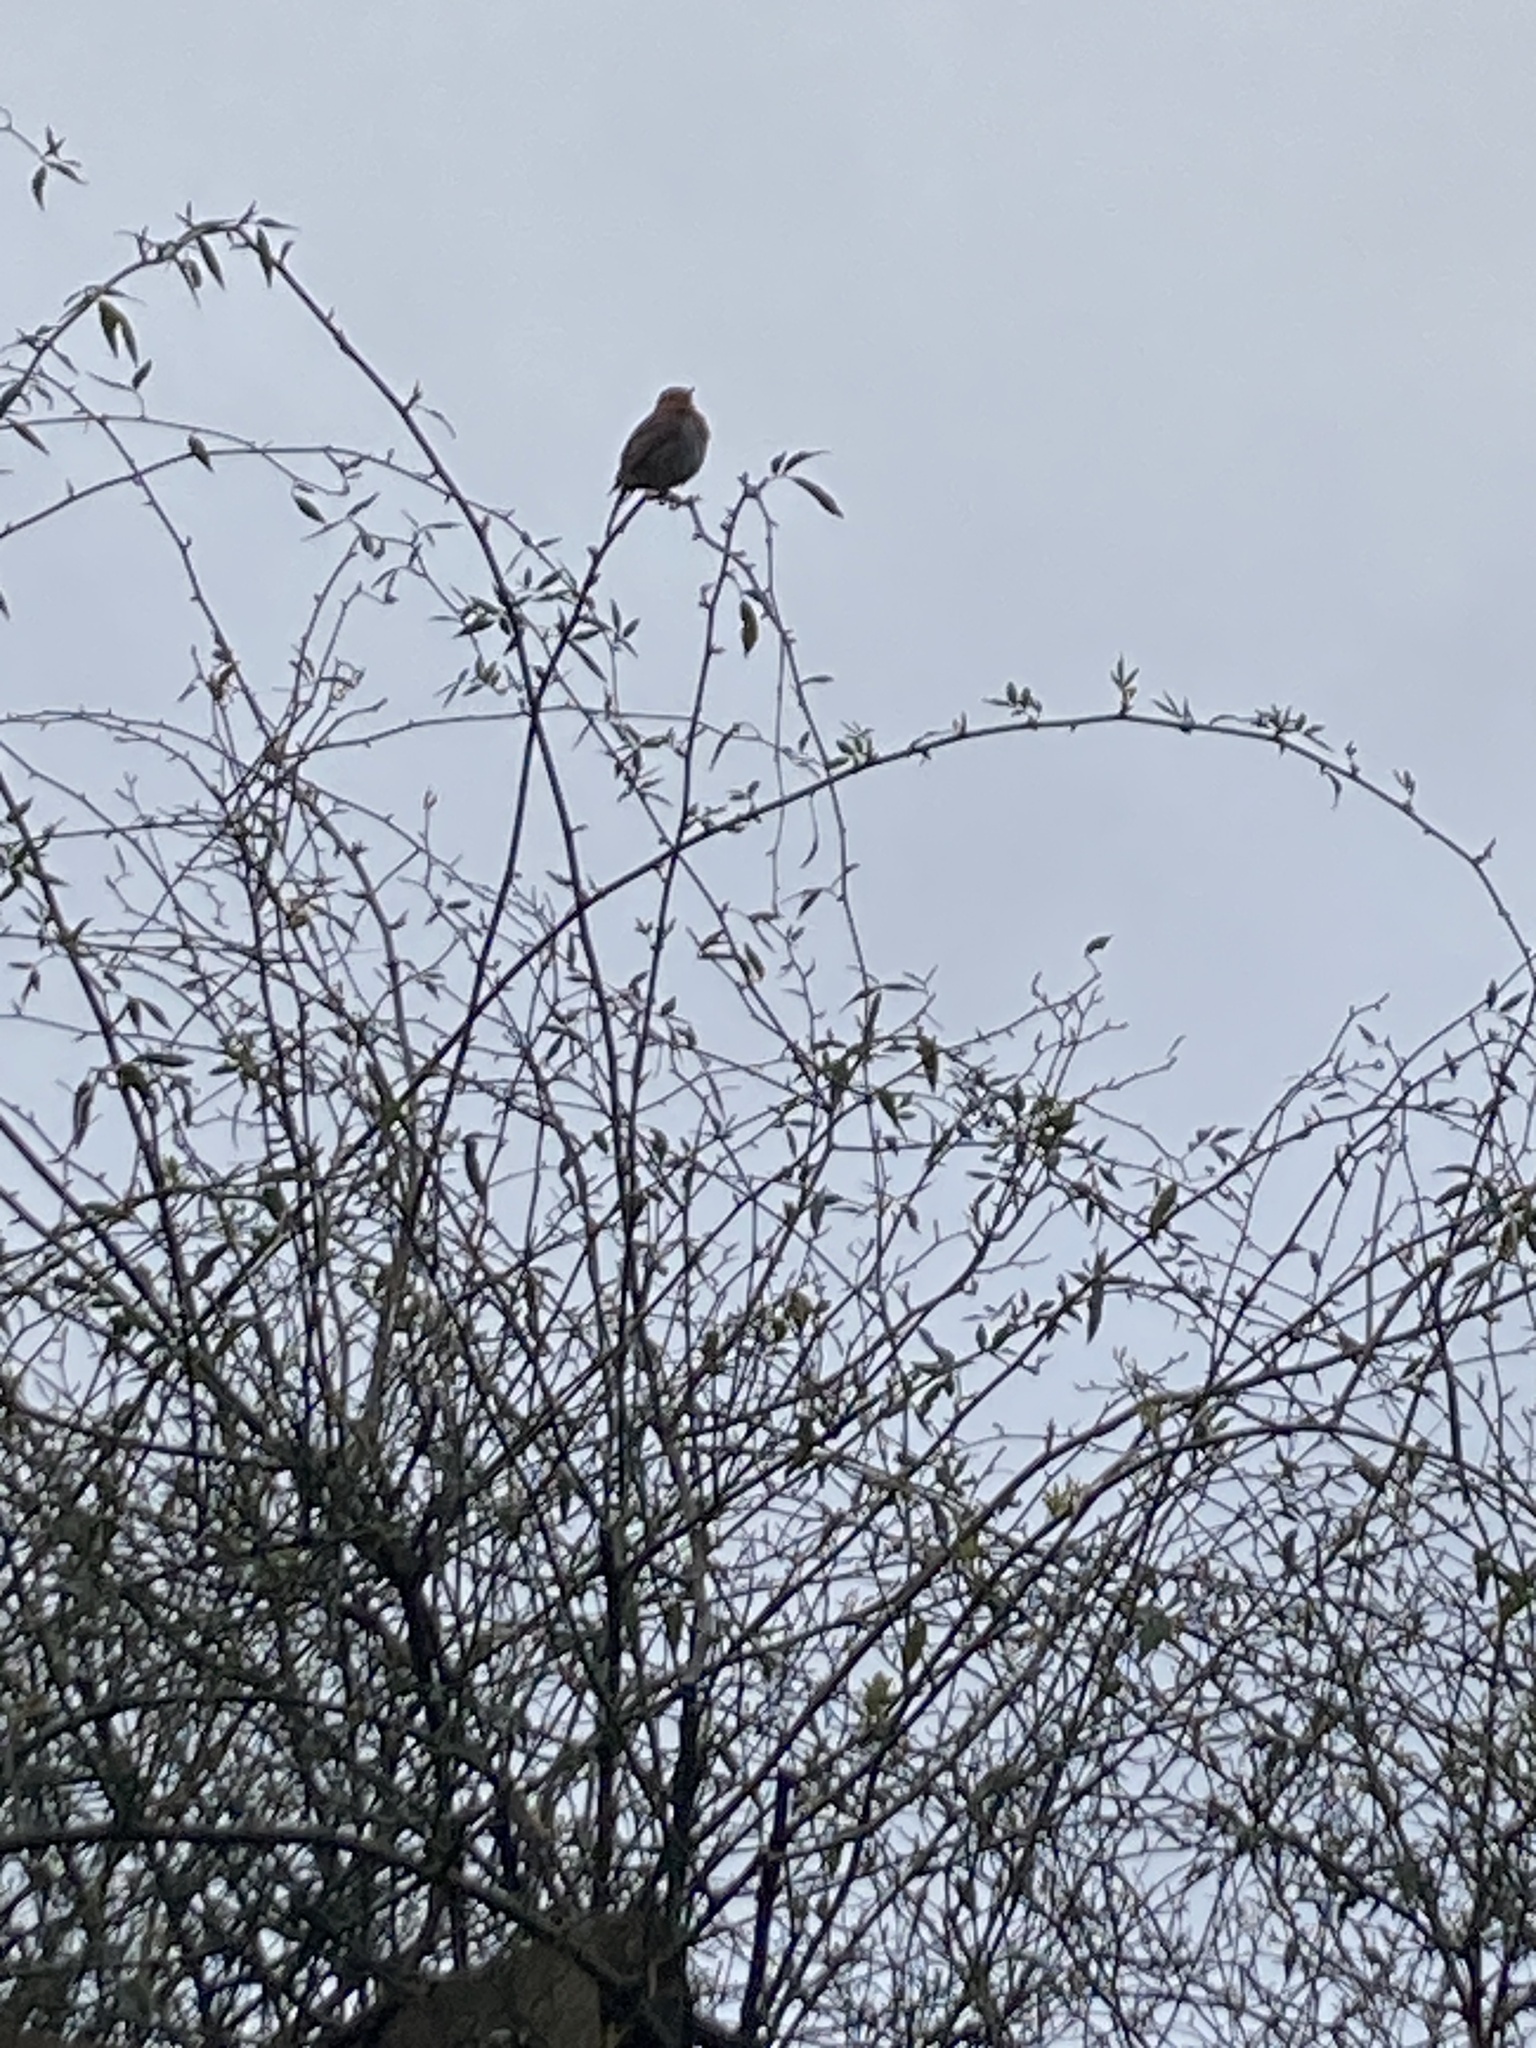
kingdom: Animalia
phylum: Chordata
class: Aves
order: Passeriformes
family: Muscicapidae
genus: Erithacus
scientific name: Erithacus rubecula
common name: European robin
